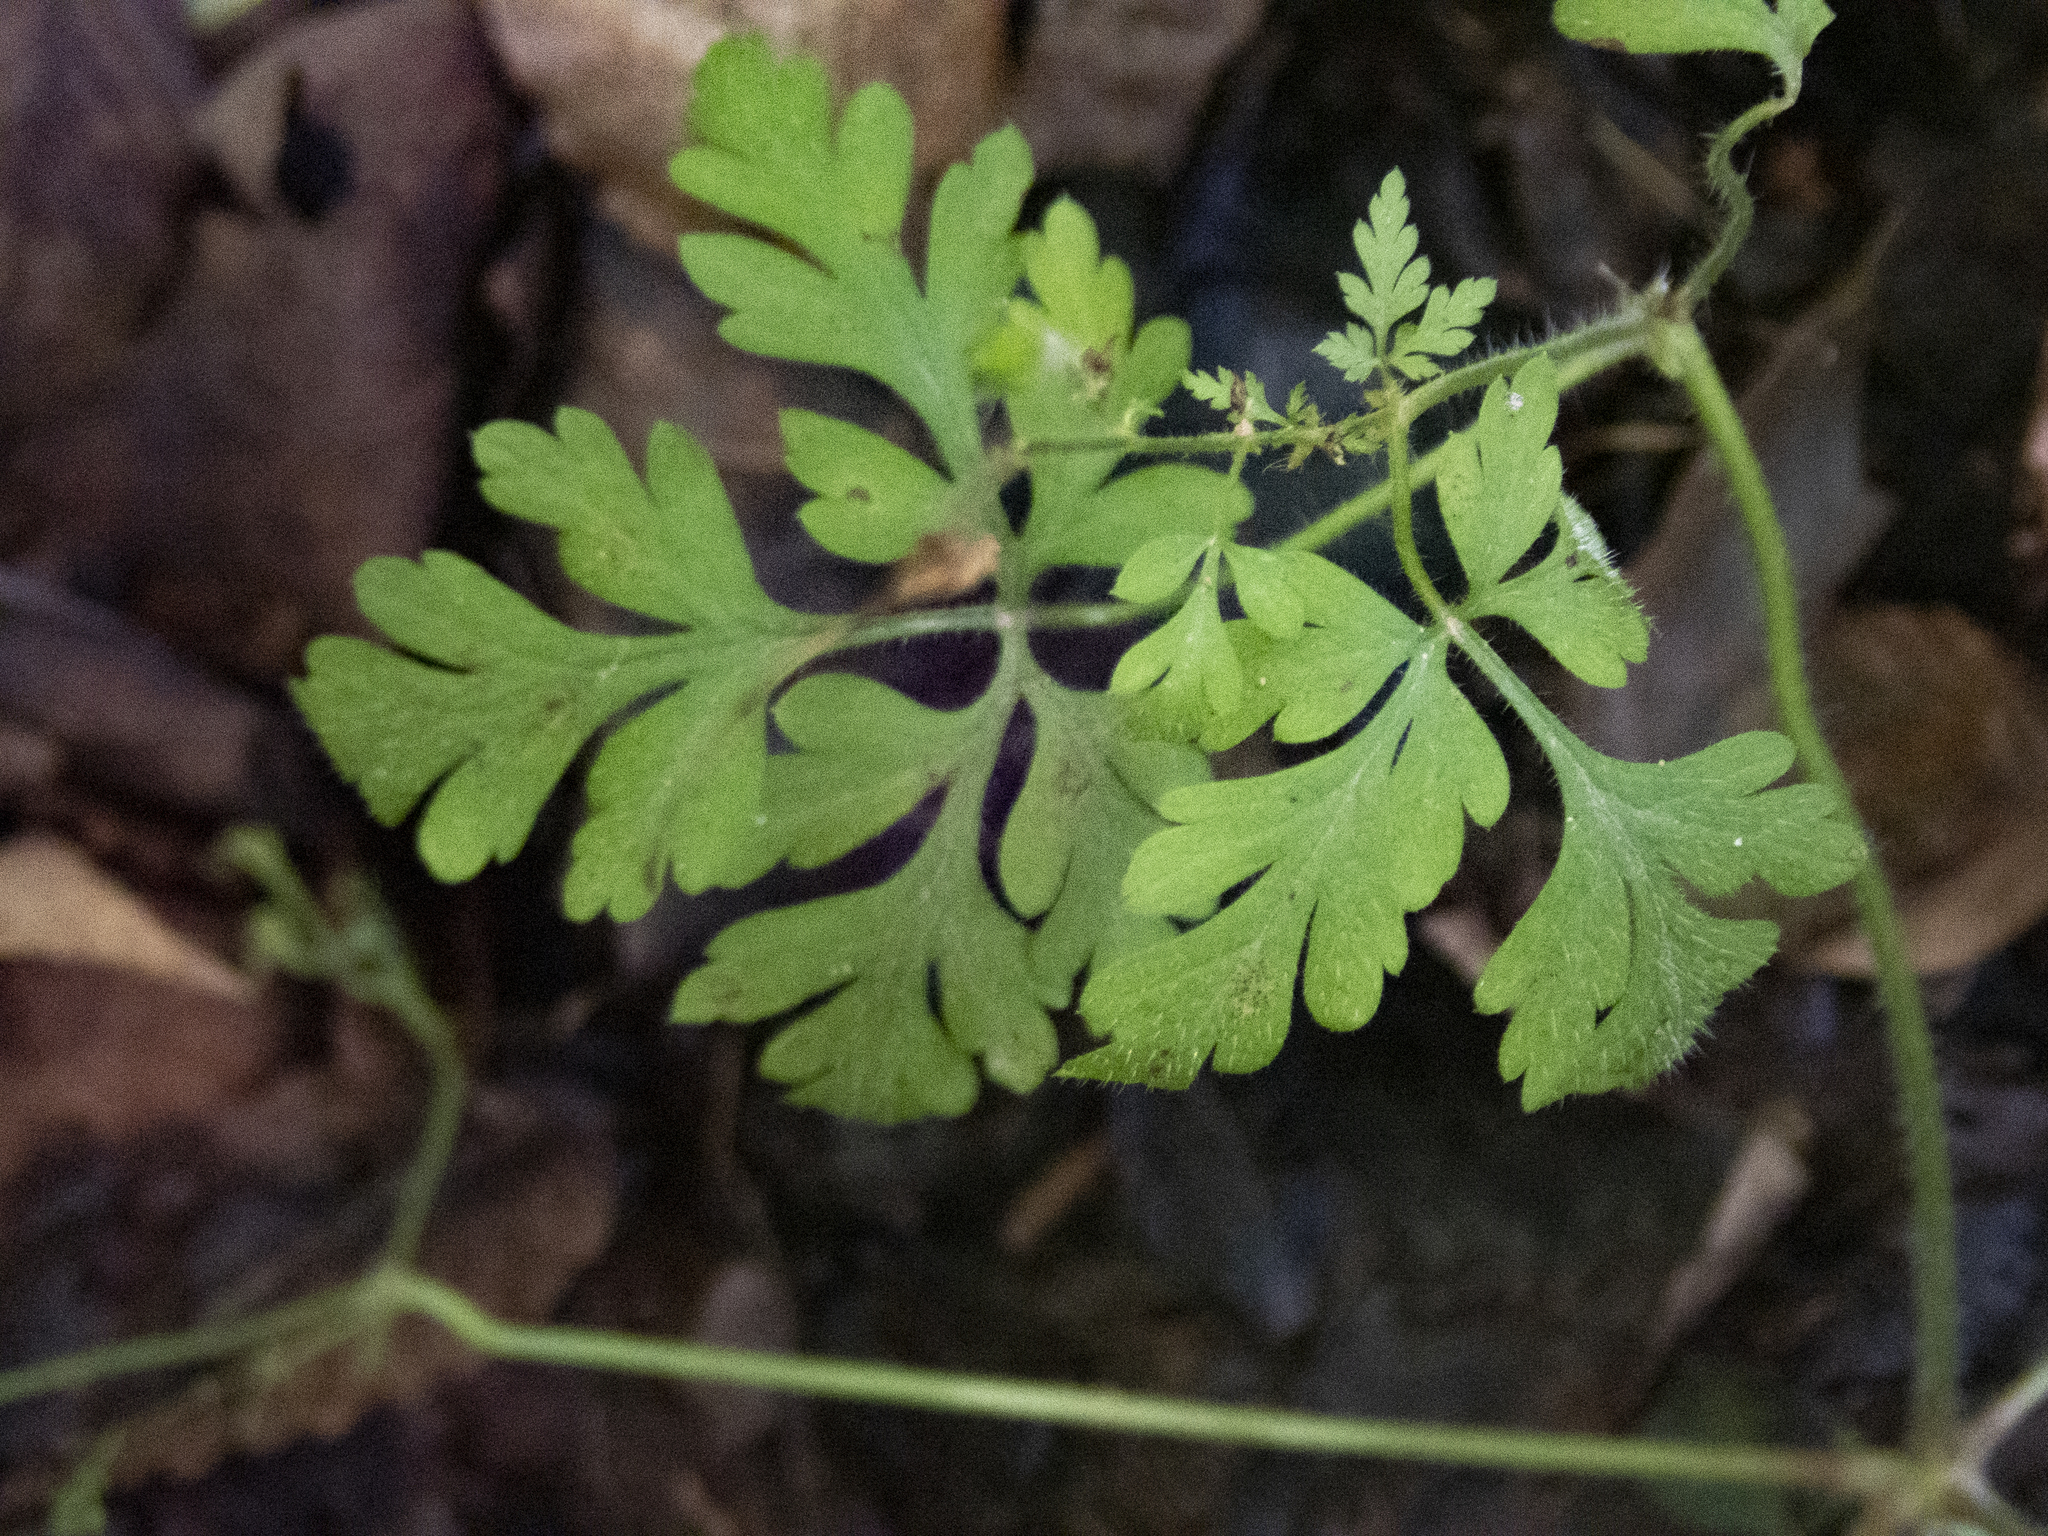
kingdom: Plantae
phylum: Tracheophyta
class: Magnoliopsida
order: Geraniales
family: Geraniaceae
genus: Geranium
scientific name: Geranium robertianum
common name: Herb-robert
